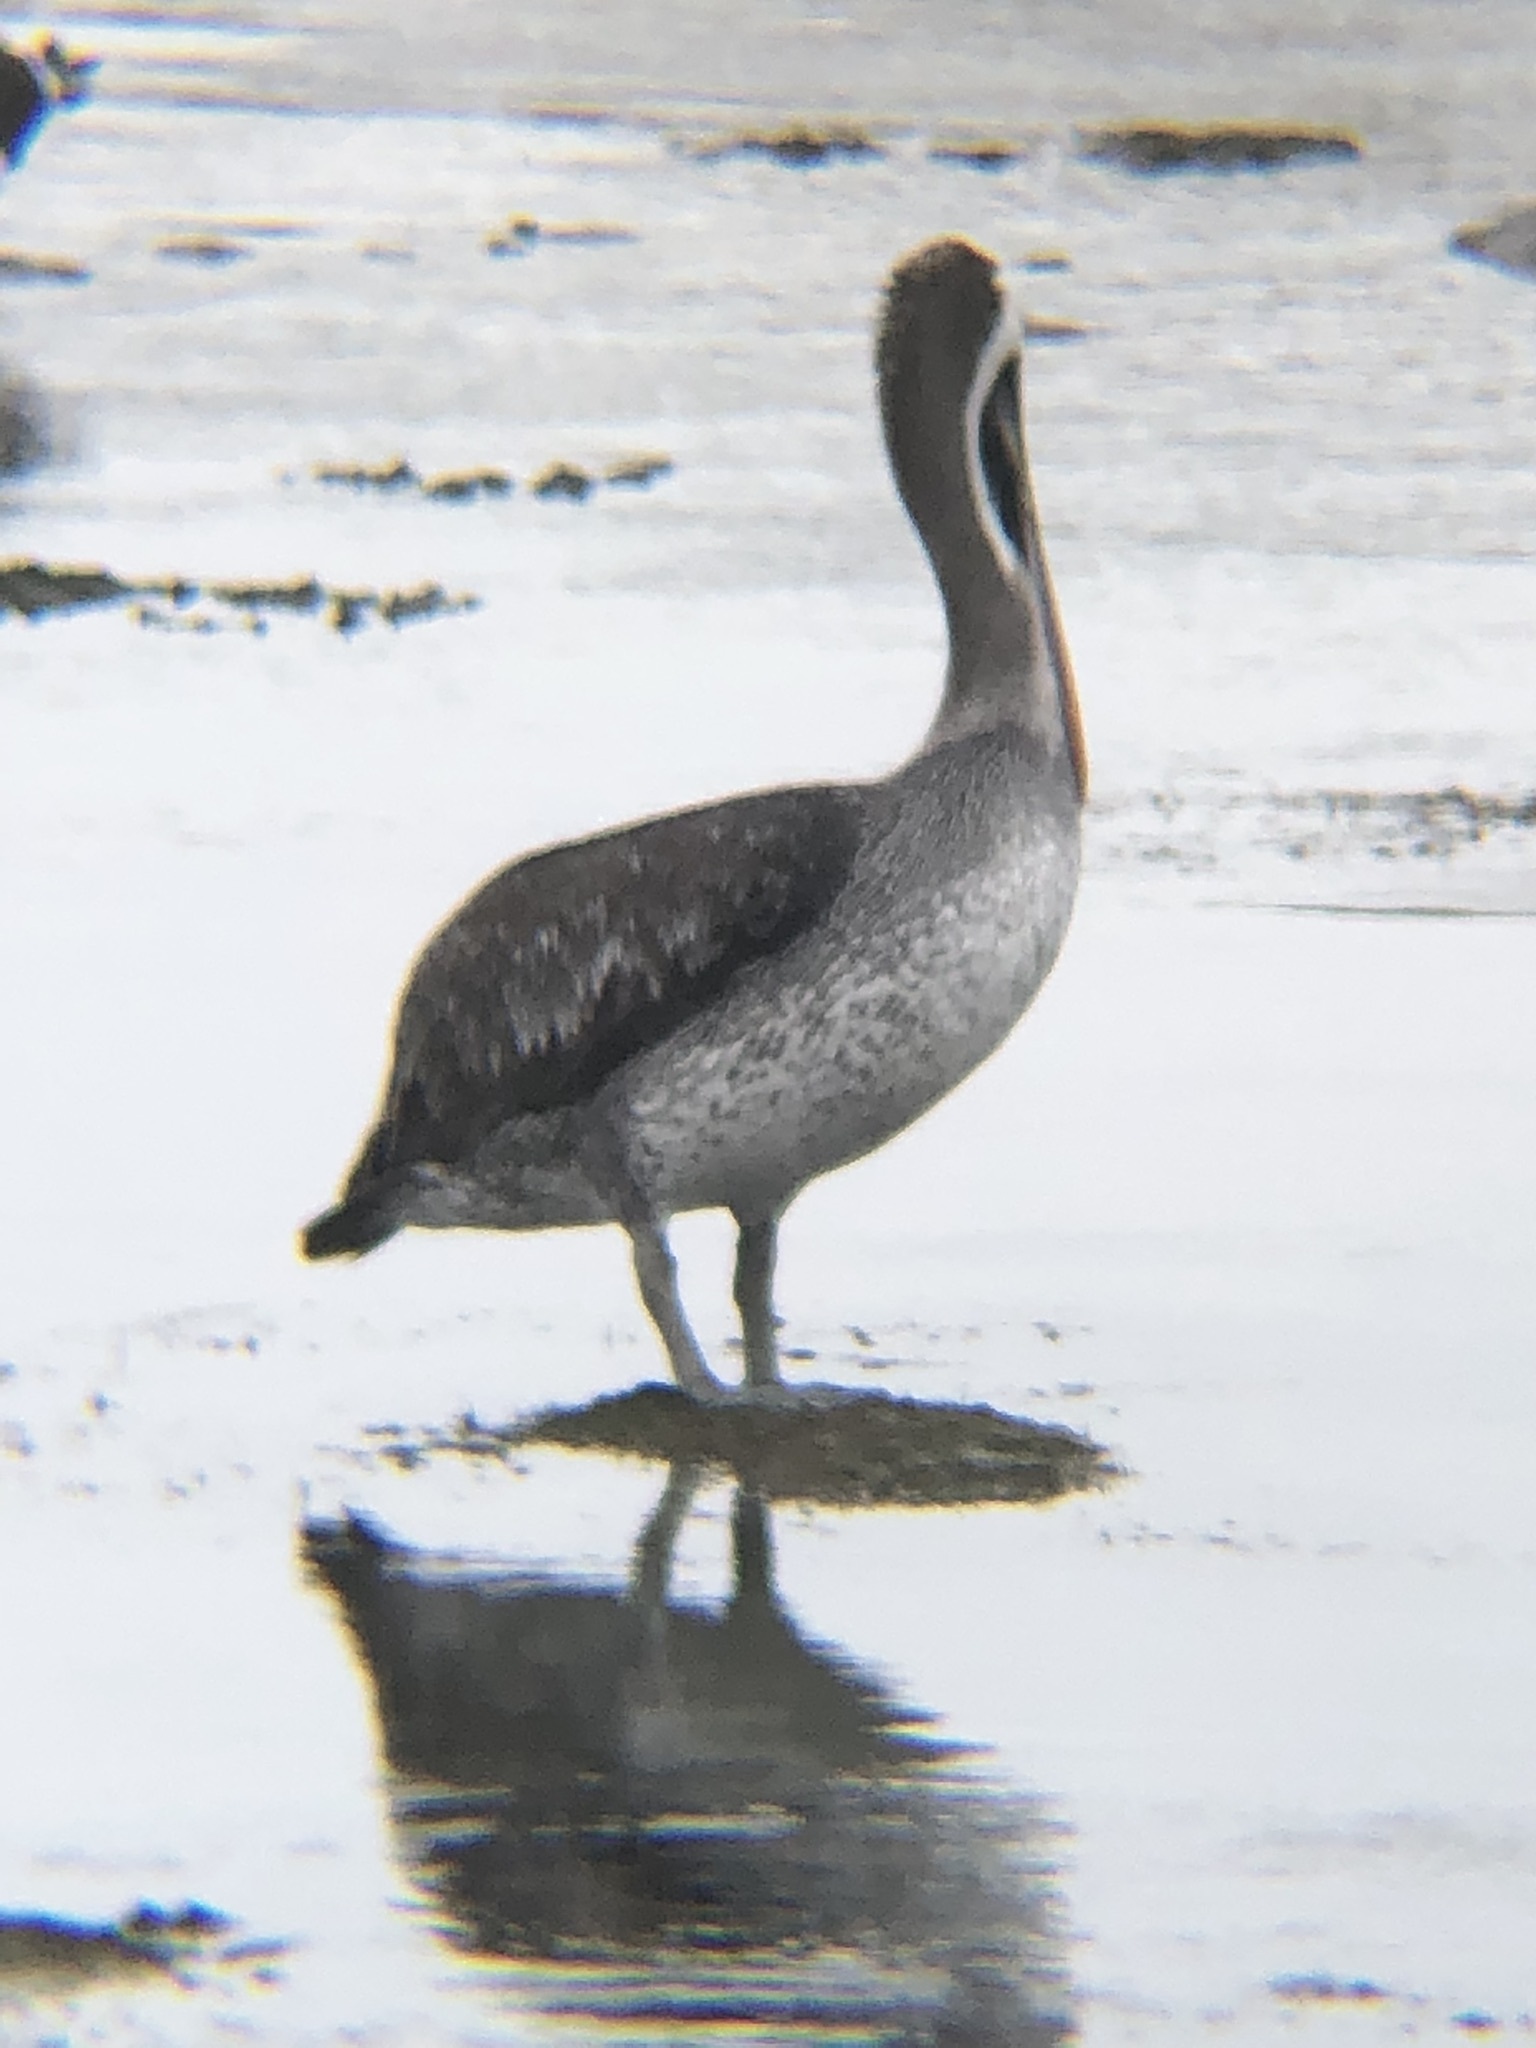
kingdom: Animalia
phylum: Chordata
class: Aves
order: Pelecaniformes
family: Pelecanidae
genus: Pelecanus
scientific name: Pelecanus thagus
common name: Peruvian pelican
